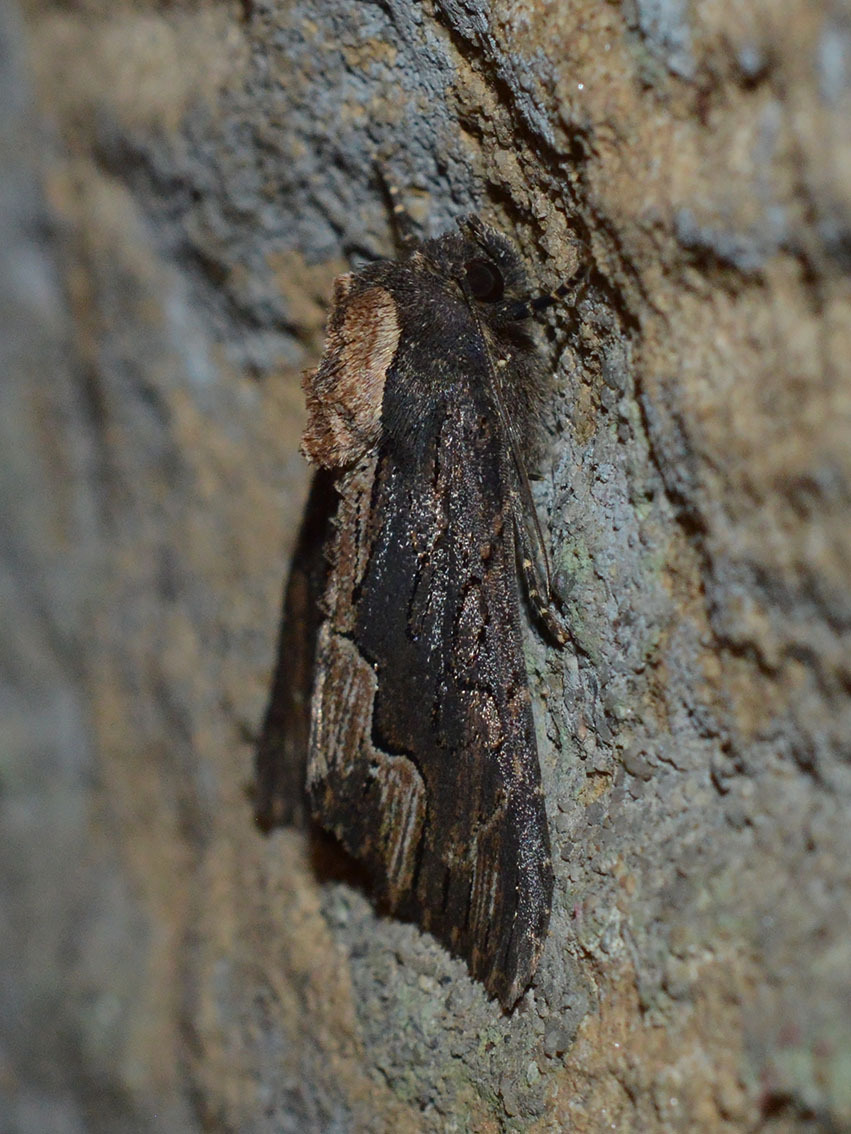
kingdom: Animalia
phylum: Arthropoda
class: Insecta
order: Lepidoptera
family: Noctuidae
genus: Dypterygia
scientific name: Dypterygia scabriuscula
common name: Bird's wing
